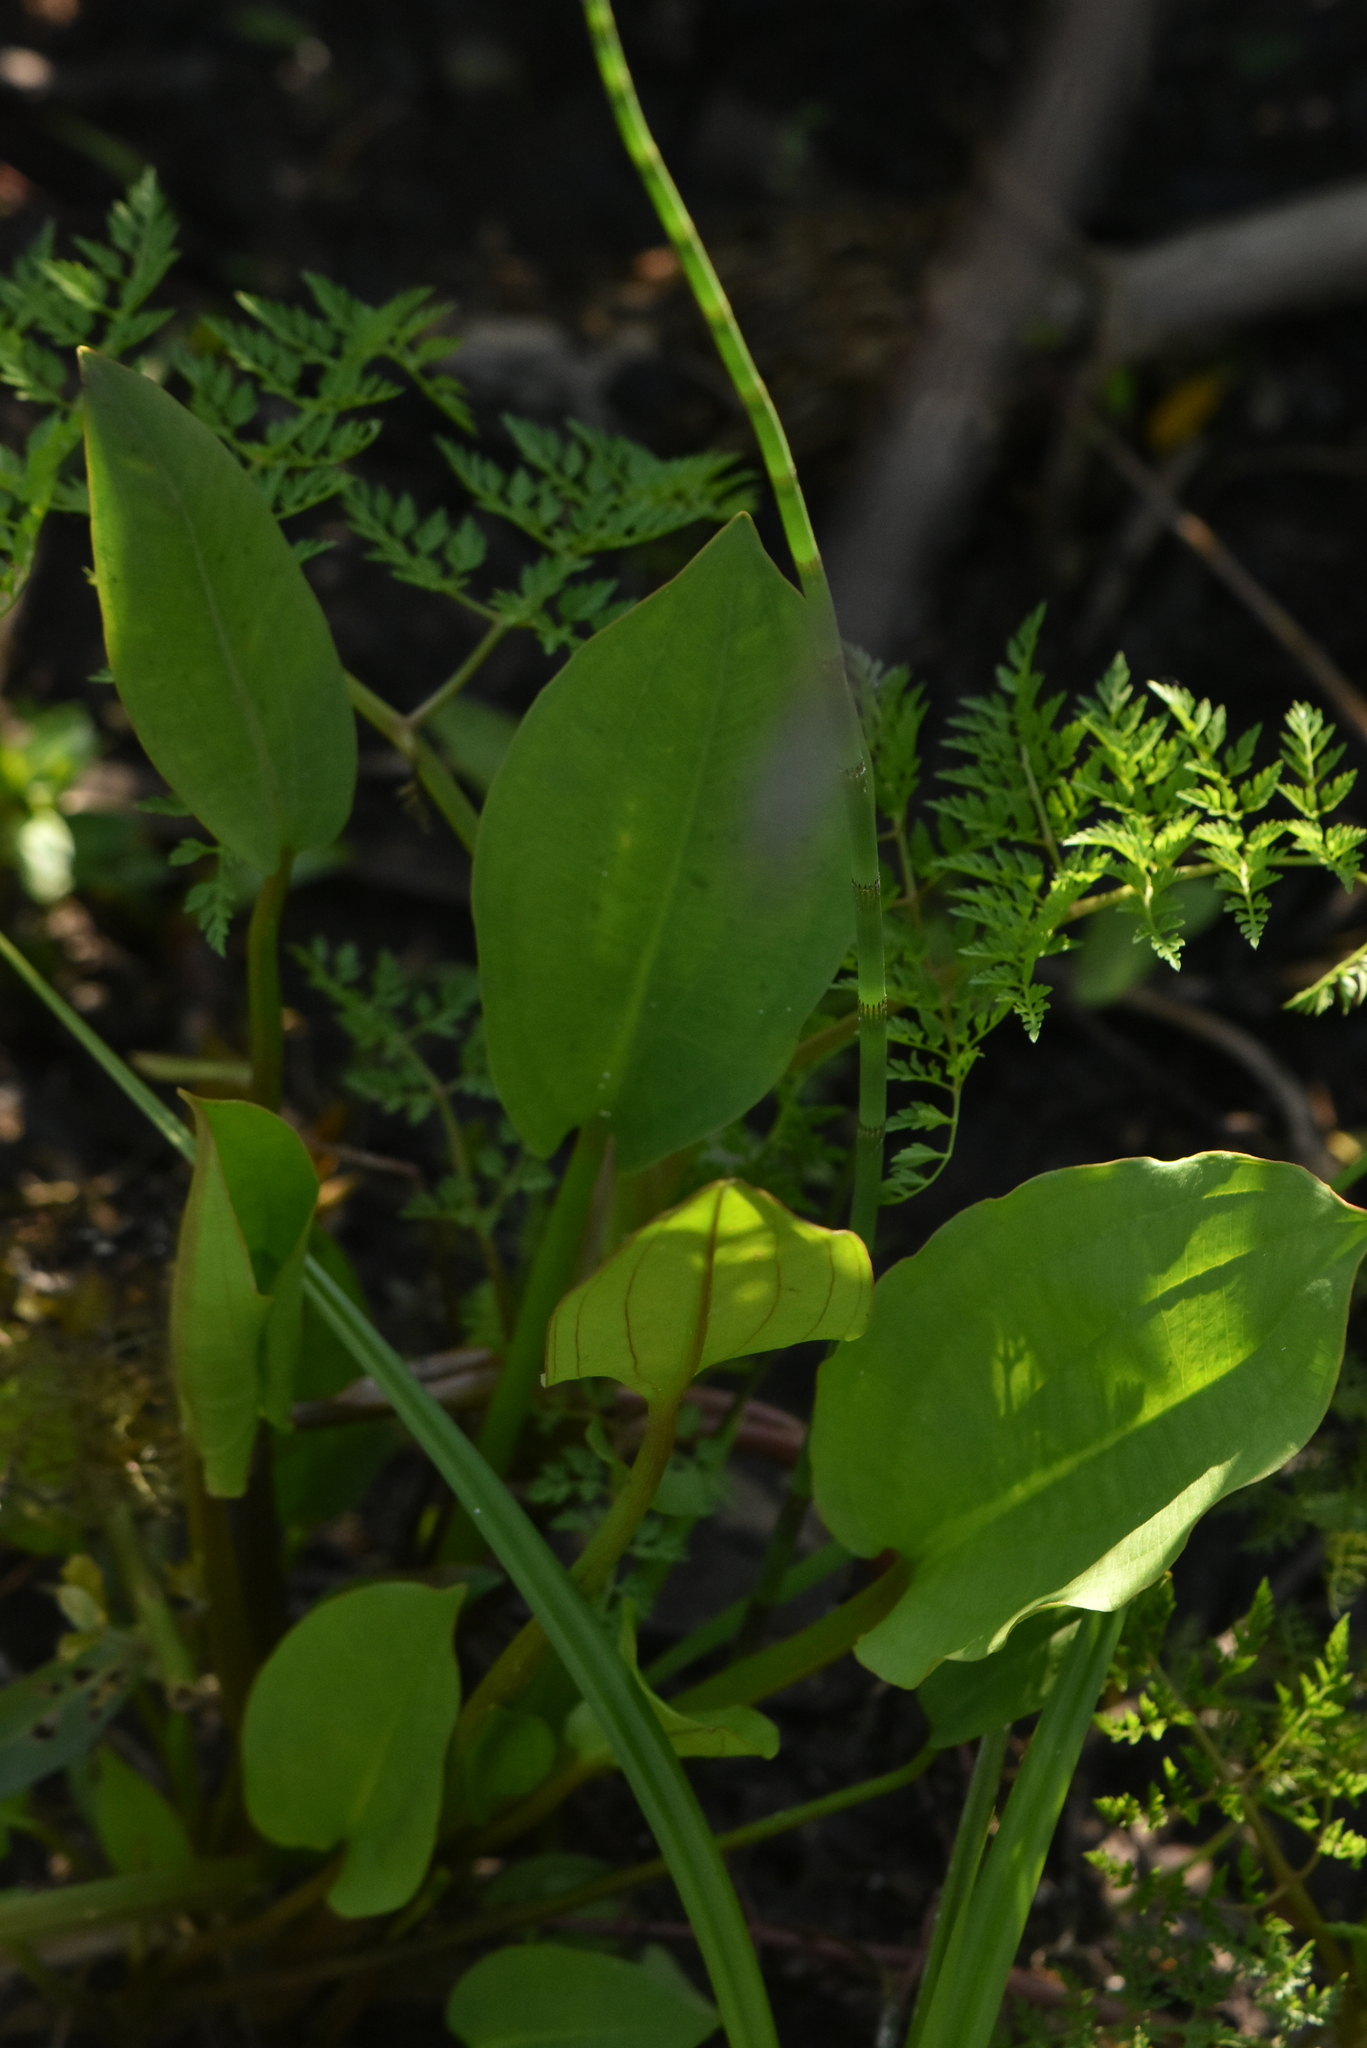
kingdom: Plantae
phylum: Tracheophyta
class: Liliopsida
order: Alismatales
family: Alismataceae
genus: Alisma
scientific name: Alisma plantago-aquatica
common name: Water-plantain
